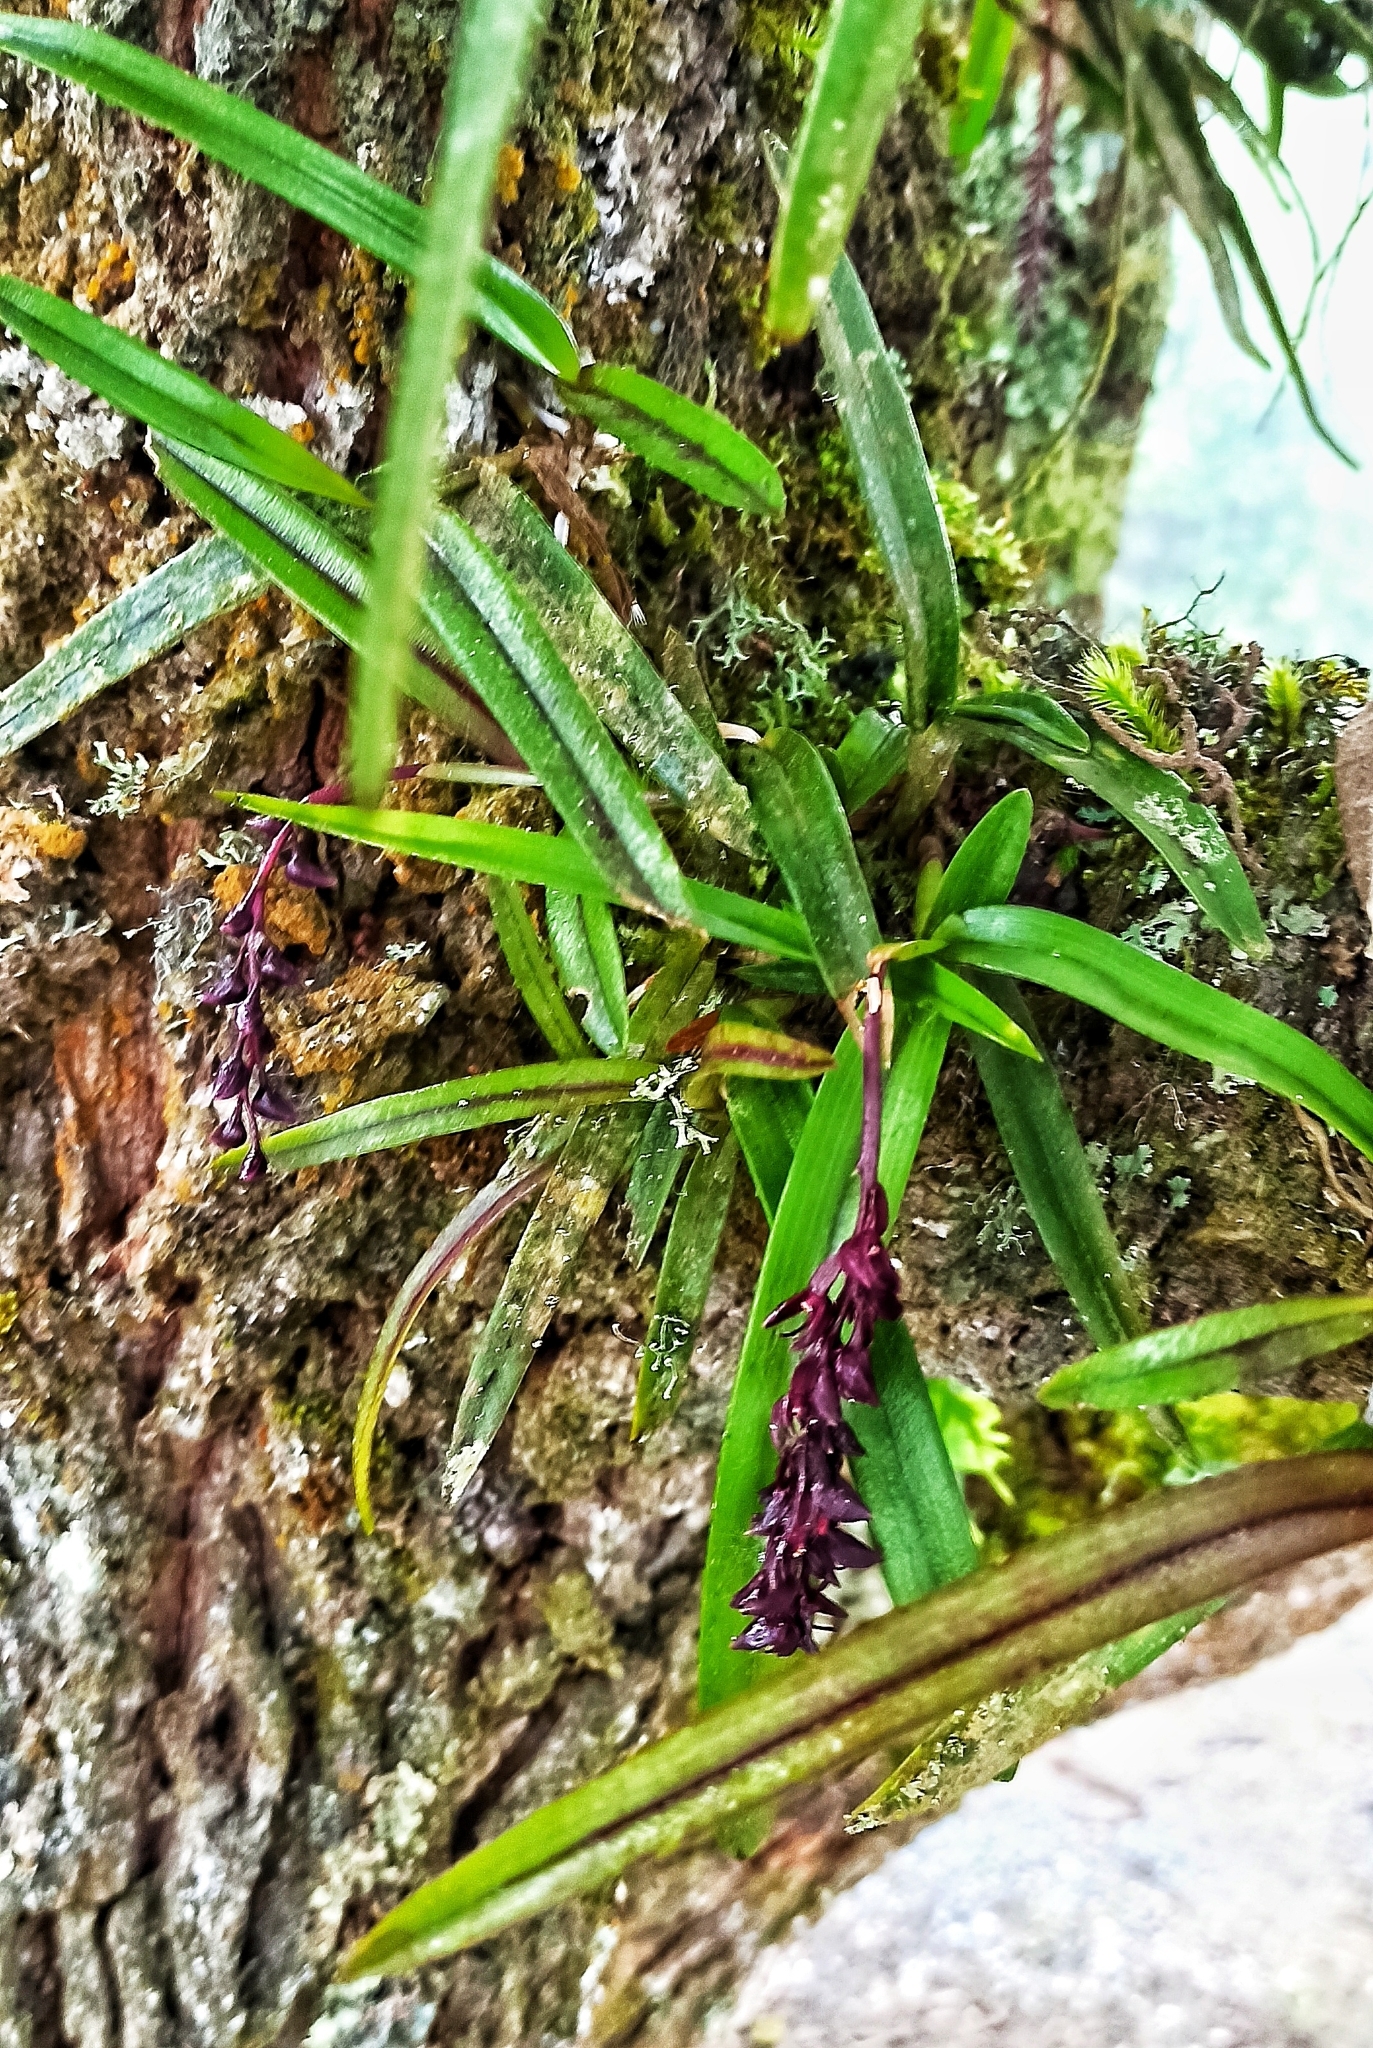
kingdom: Plantae
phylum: Tracheophyta
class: Liliopsida
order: Asparagales
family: Orchidaceae
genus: Epidendrum
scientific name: Epidendrum coryophorum
